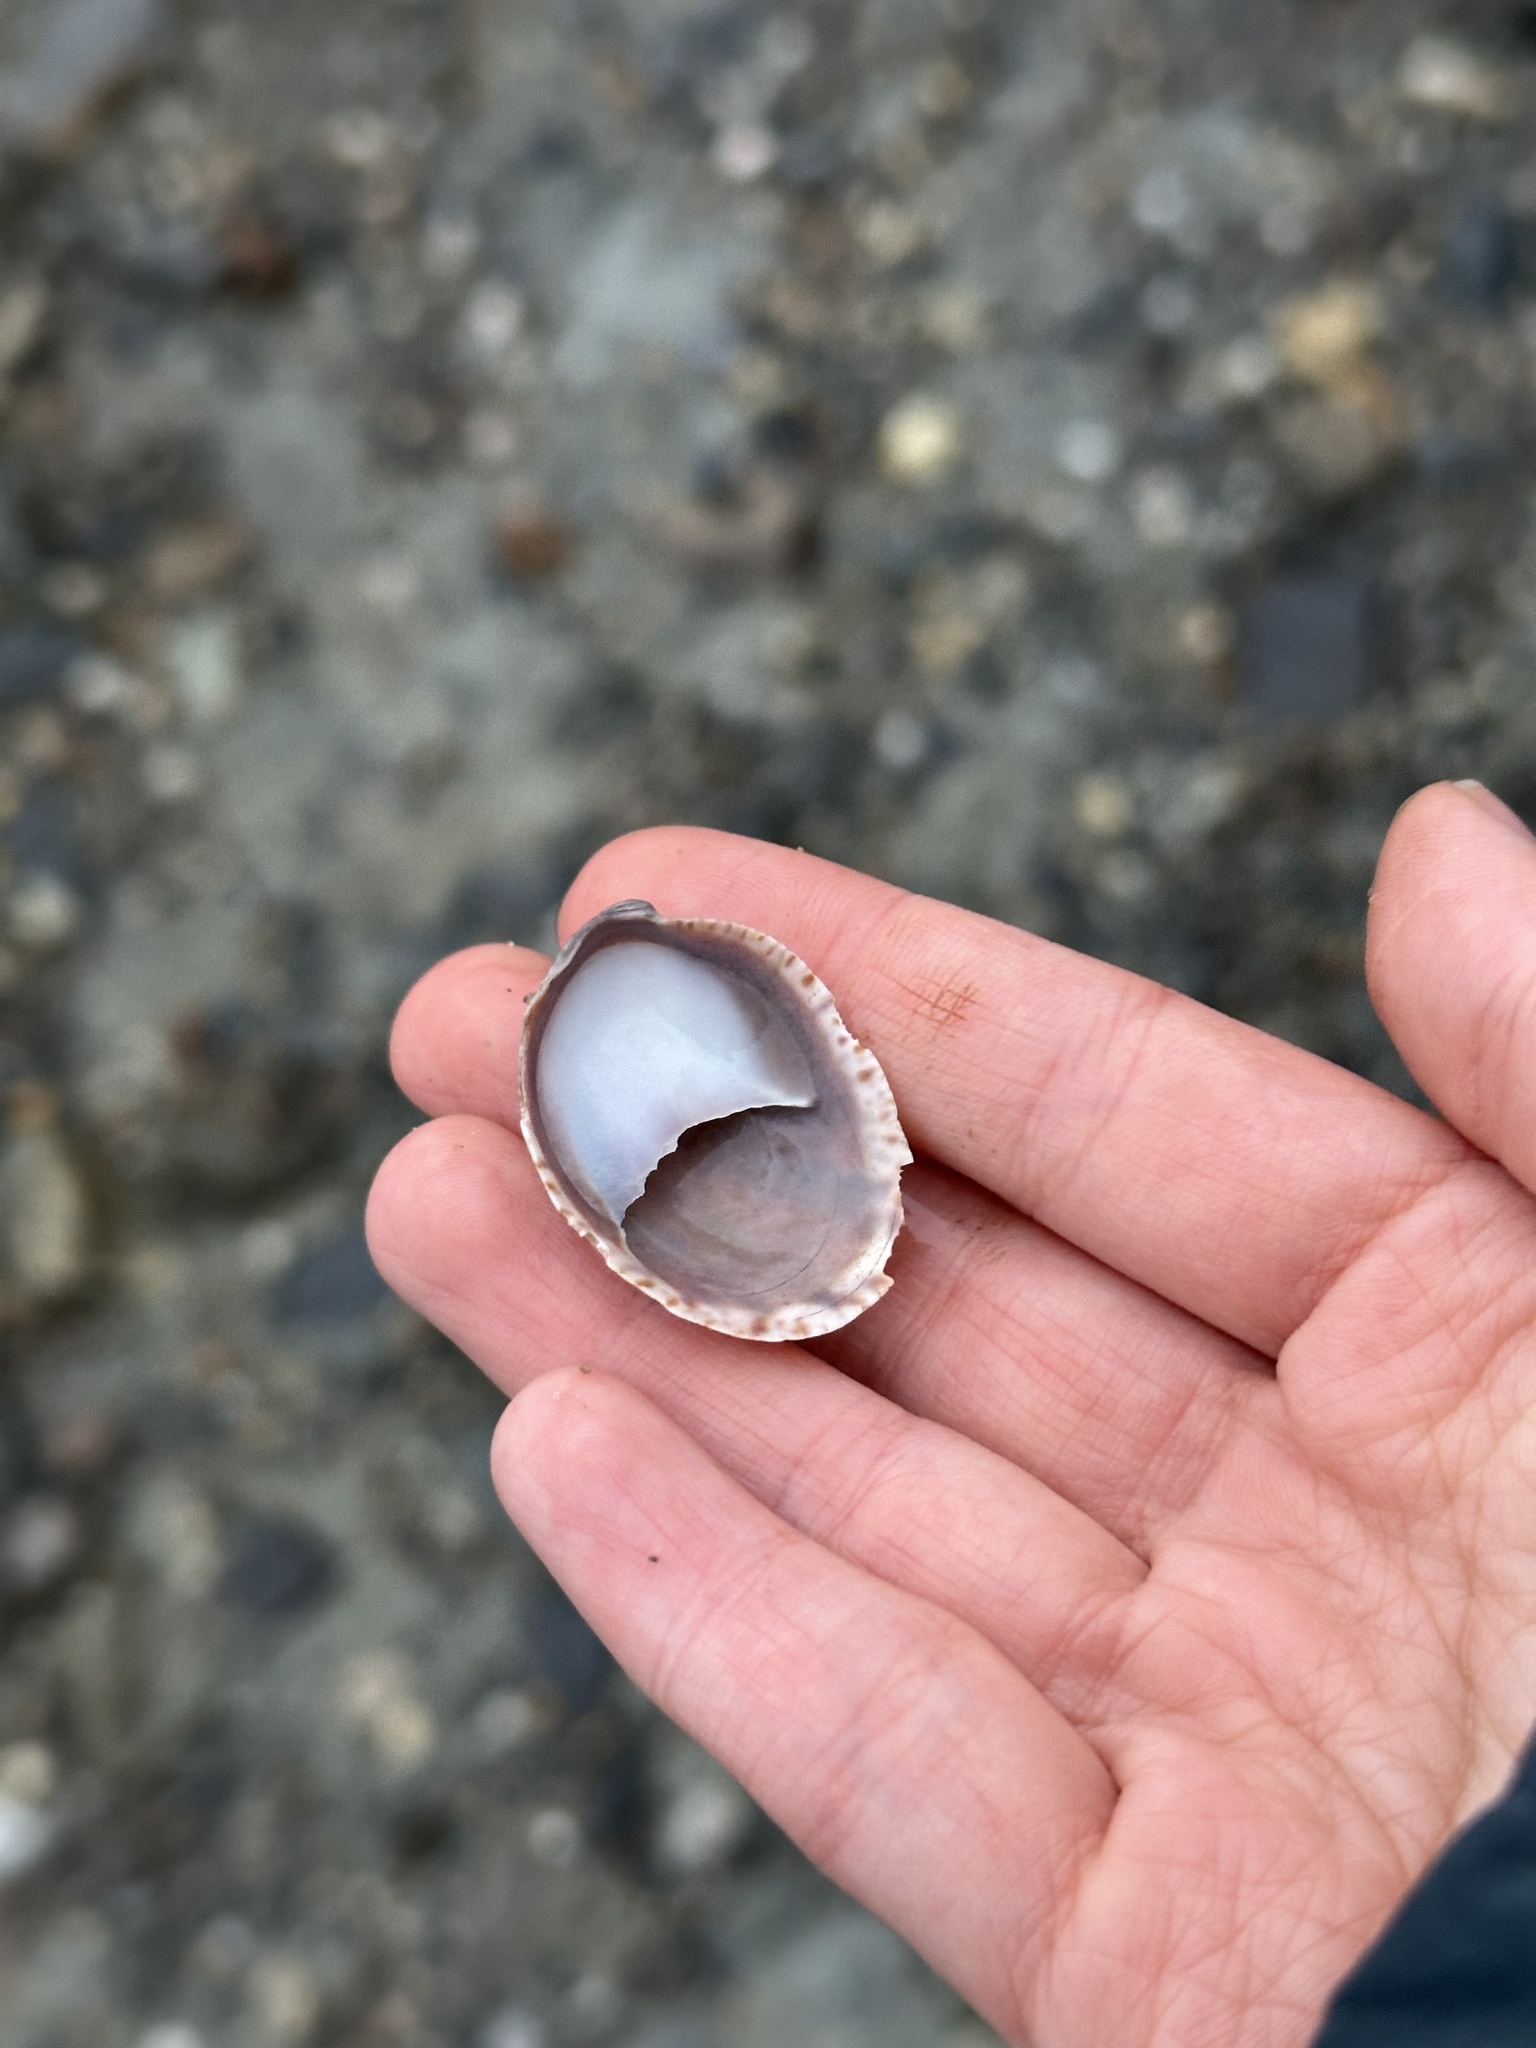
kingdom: Animalia
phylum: Mollusca
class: Gastropoda
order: Littorinimorpha
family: Calyptraeidae
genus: Crepidula
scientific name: Crepidula fornicata
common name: Slipper limpet
